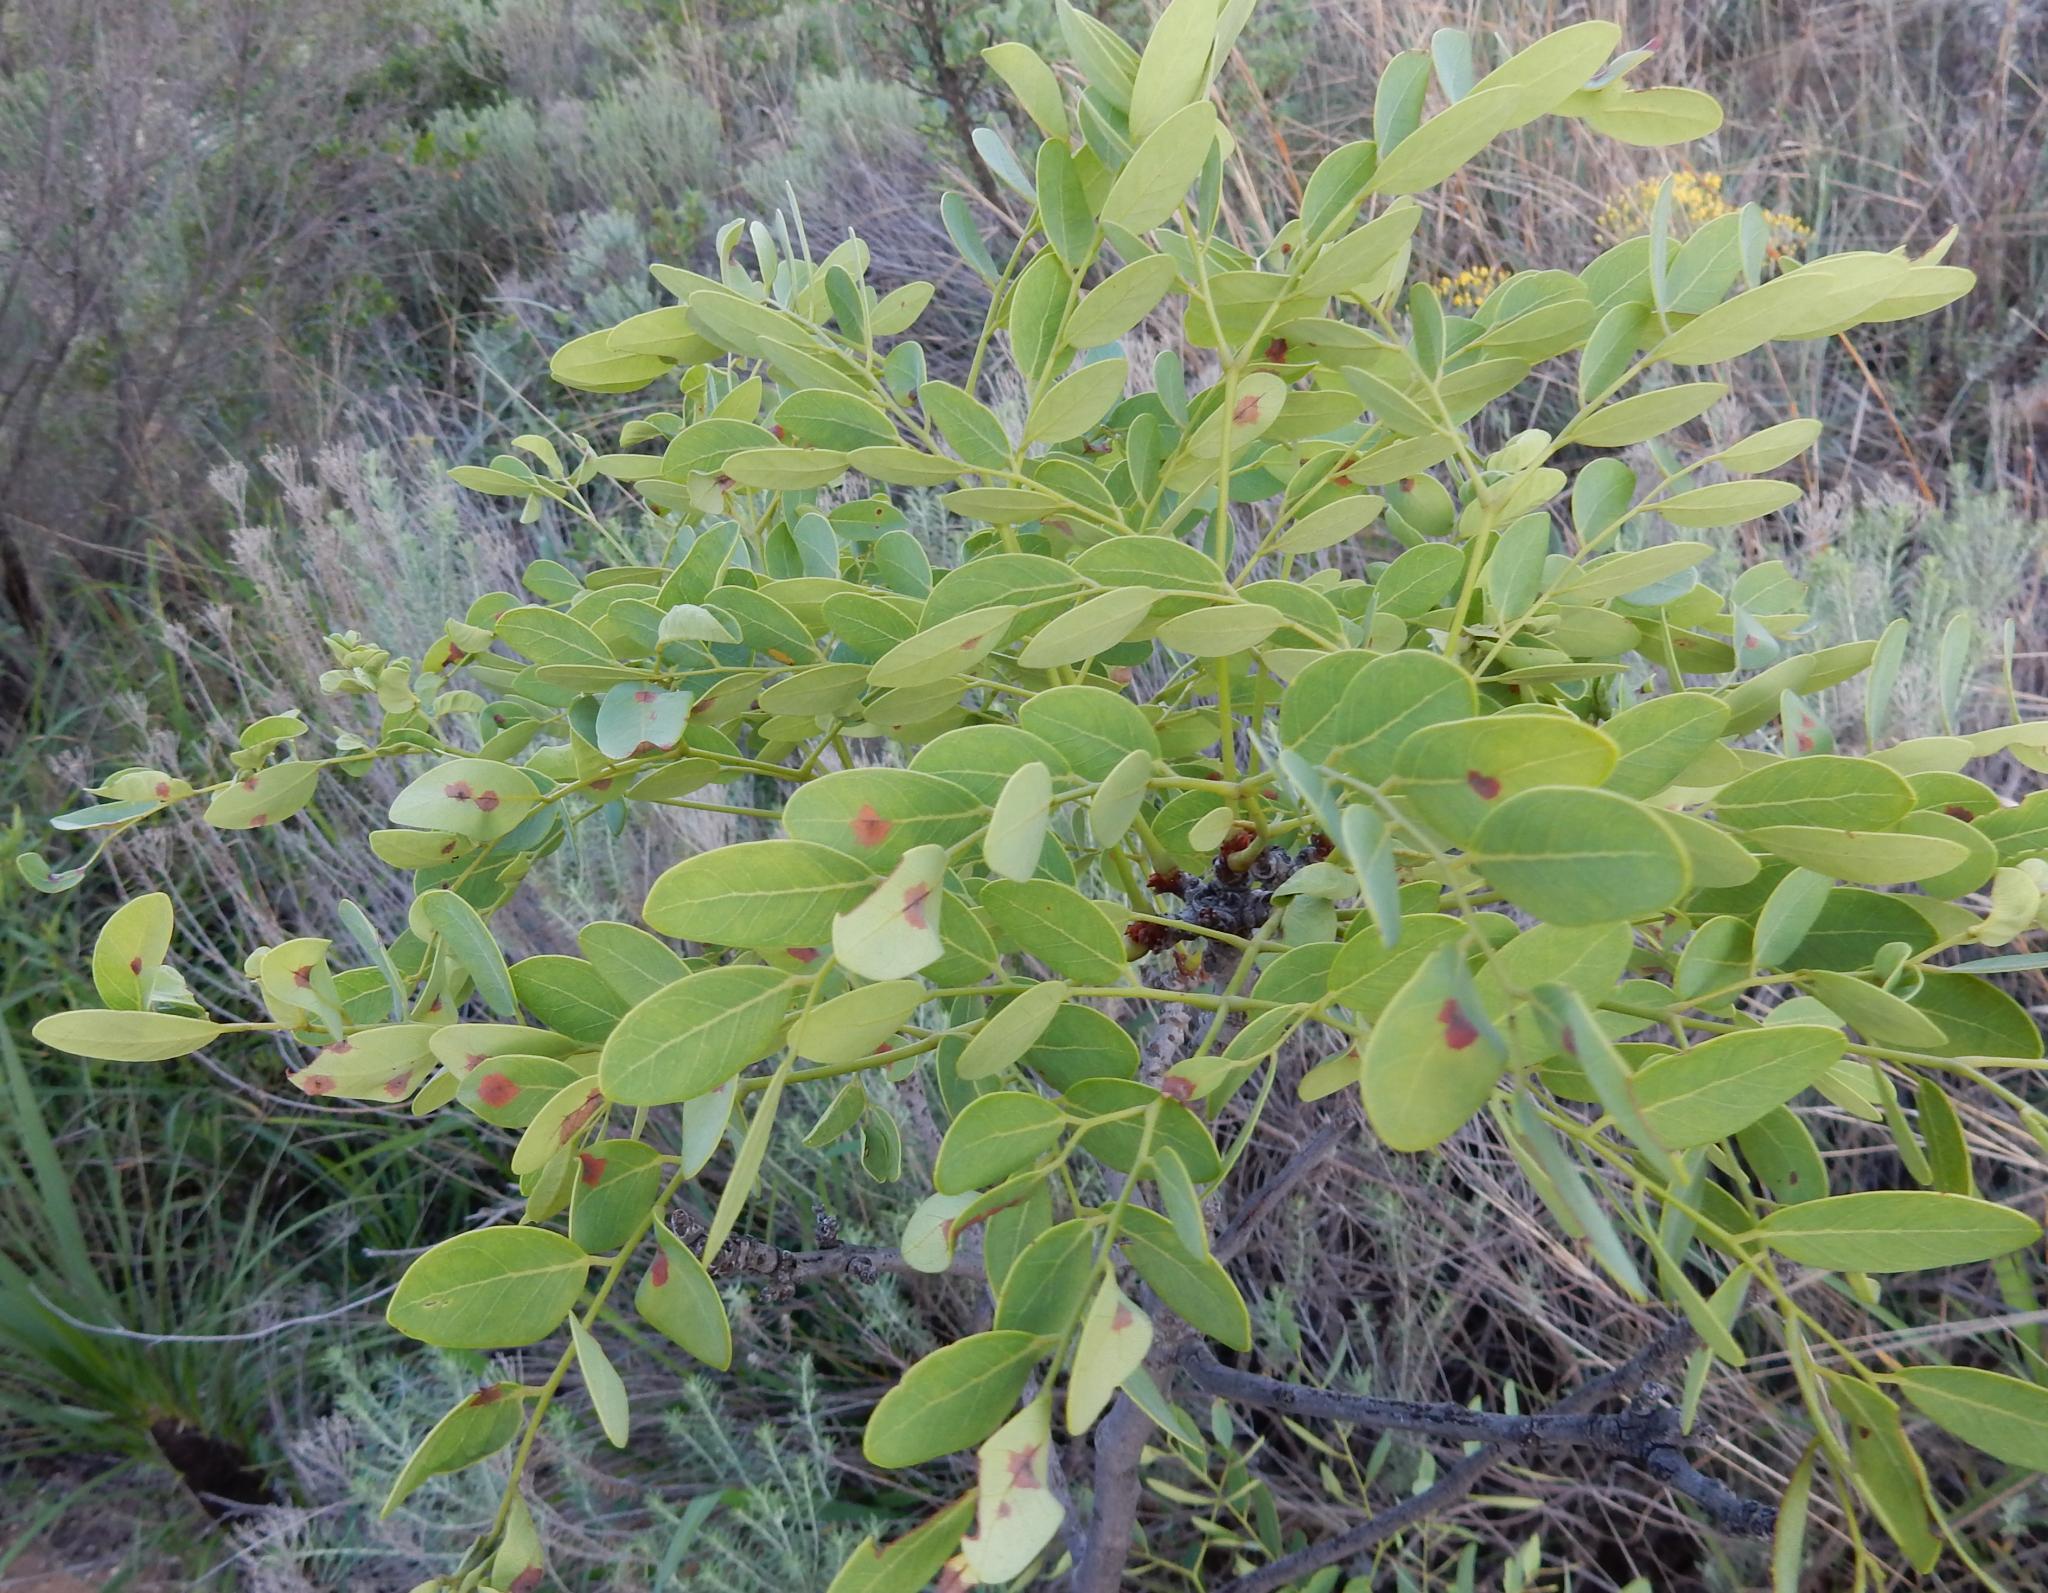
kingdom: Plantae
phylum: Tracheophyta
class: Magnoliopsida
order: Fabales
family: Fabaceae
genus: Burkea
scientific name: Burkea africana
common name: Mkalati tree
